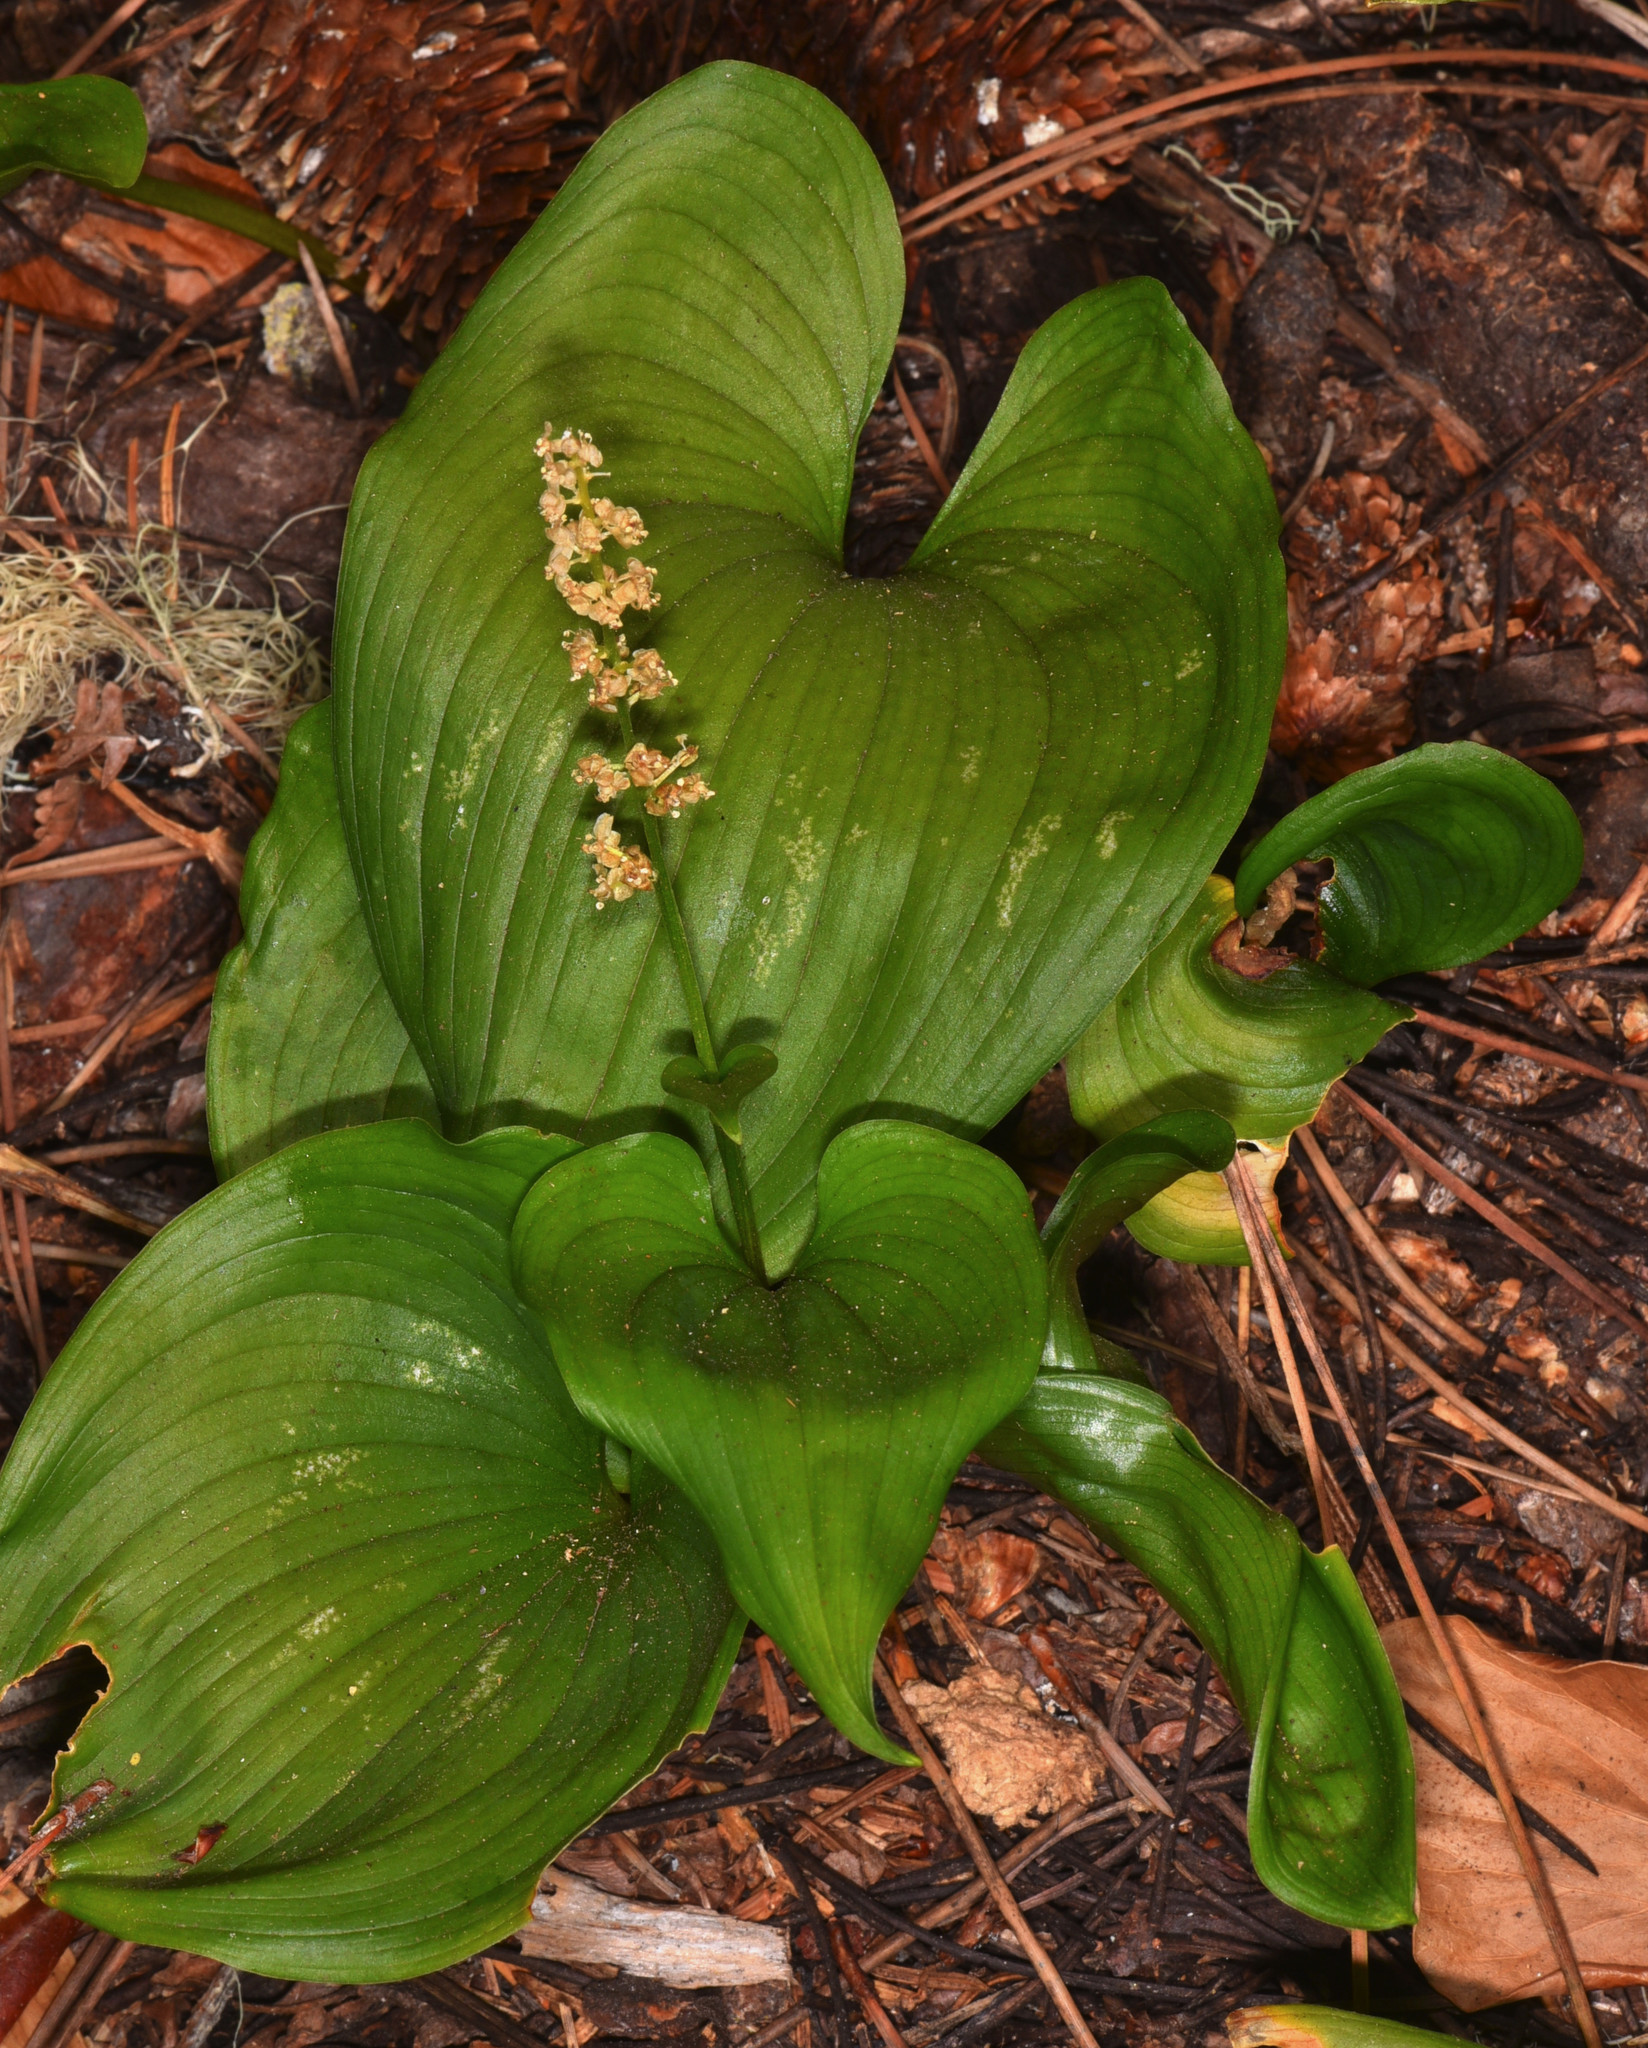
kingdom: Plantae
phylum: Tracheophyta
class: Liliopsida
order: Asparagales
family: Asparagaceae
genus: Maianthemum
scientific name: Maianthemum dilatatum
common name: False lily-of-the-valley
